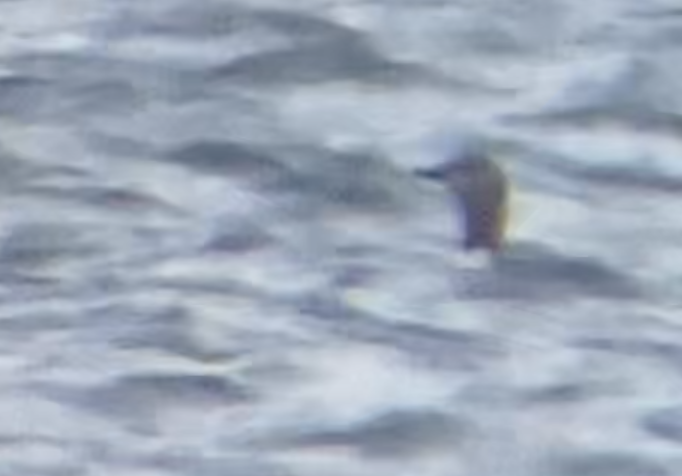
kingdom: Animalia
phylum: Chordata
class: Aves
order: Gaviiformes
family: Gaviidae
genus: Gavia
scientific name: Gavia stellata
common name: Red-throated loon
